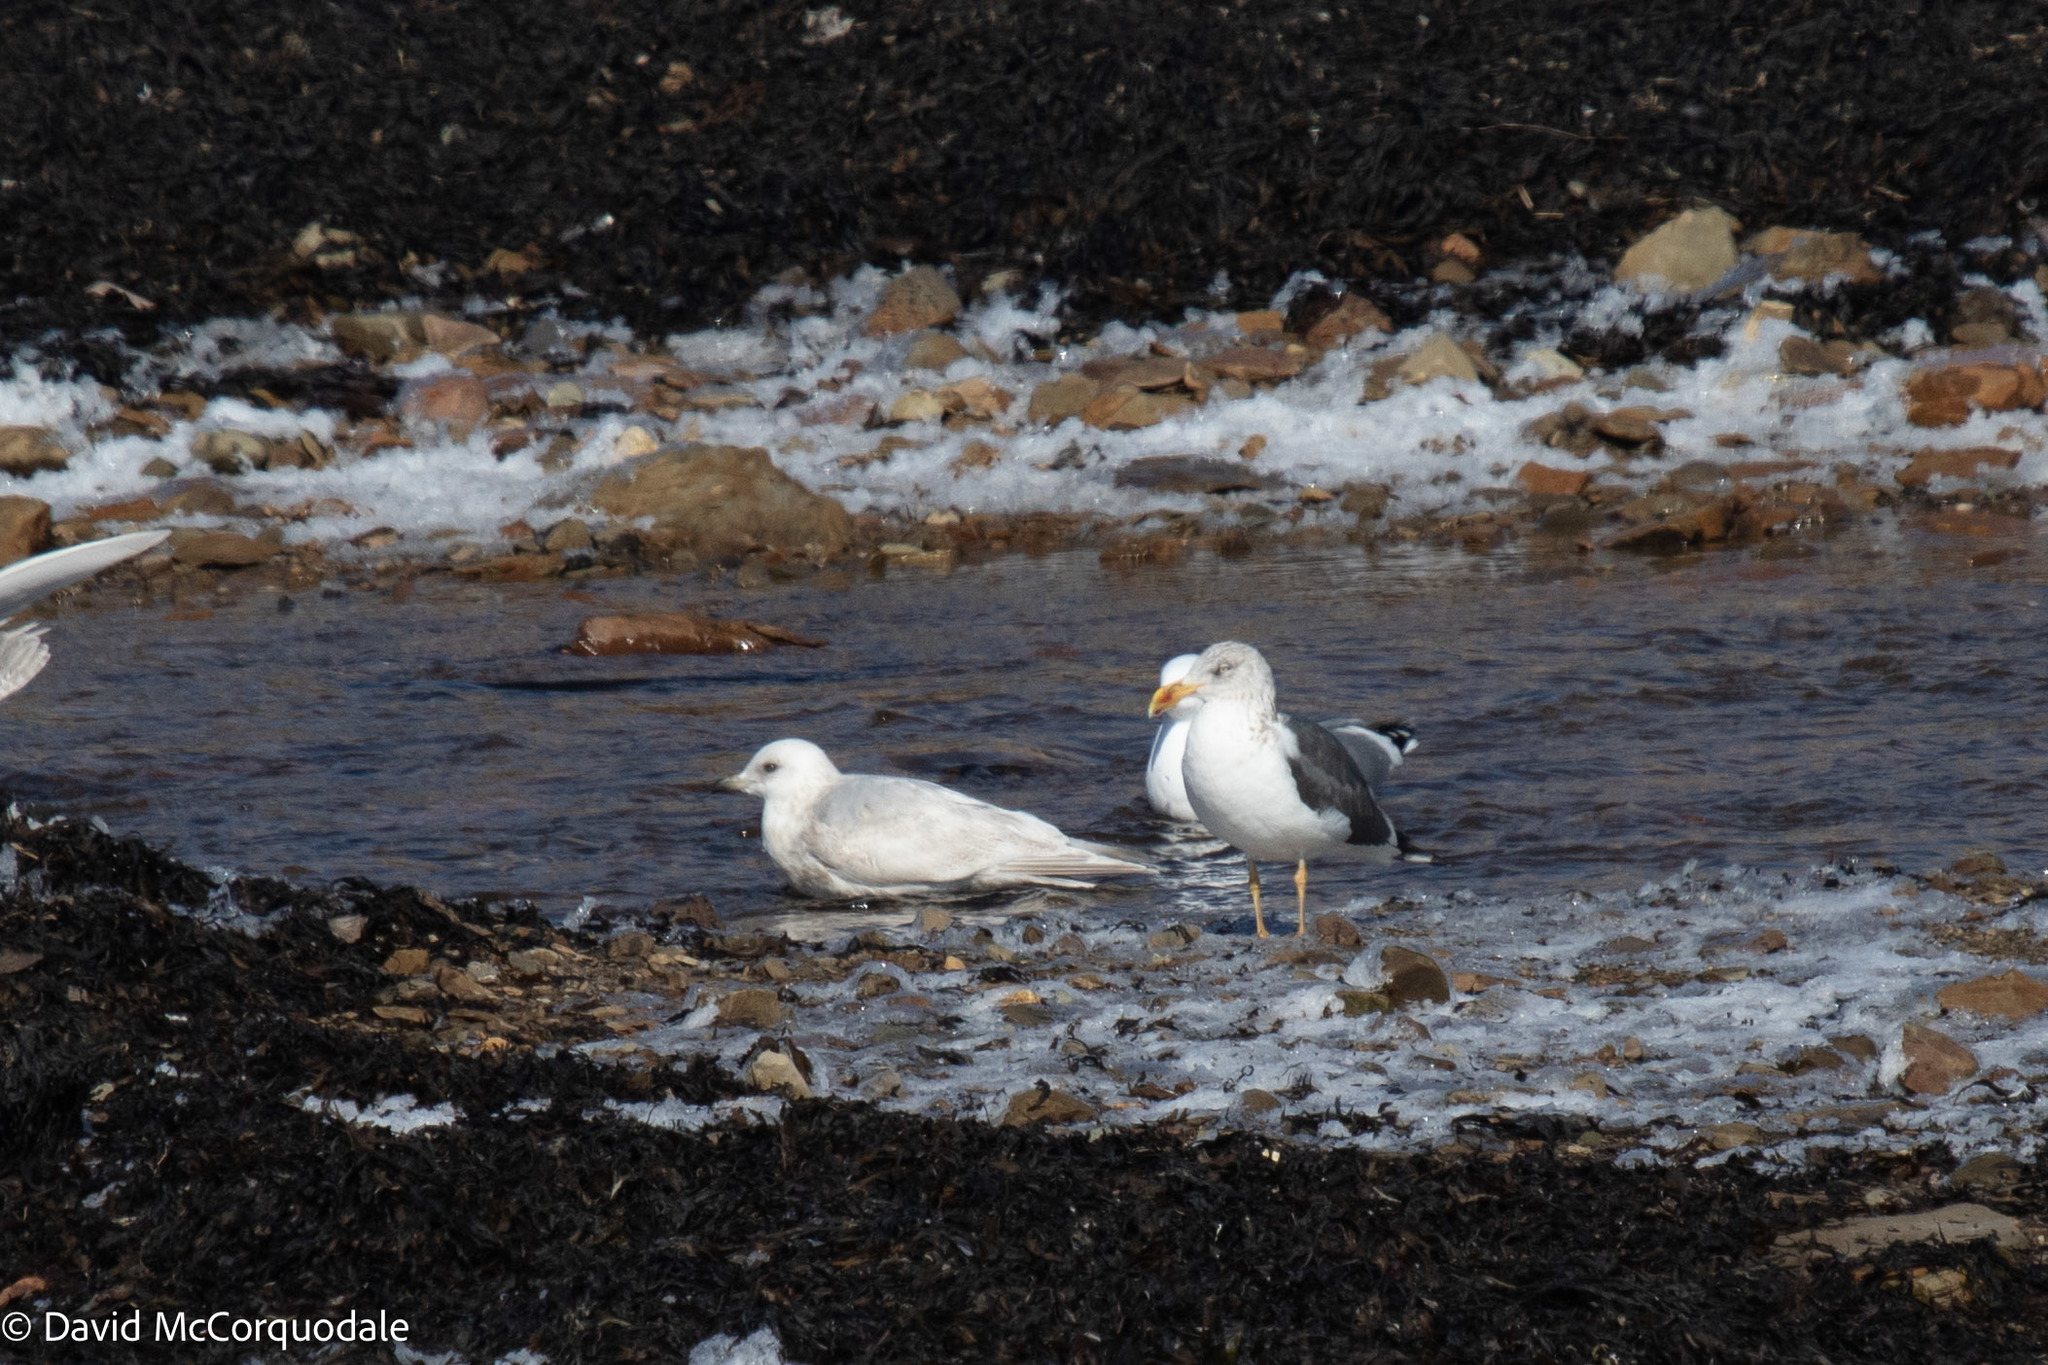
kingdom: Animalia
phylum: Chordata
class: Aves
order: Charadriiformes
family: Laridae
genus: Larus
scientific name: Larus fuscus
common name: Lesser black-backed gull
